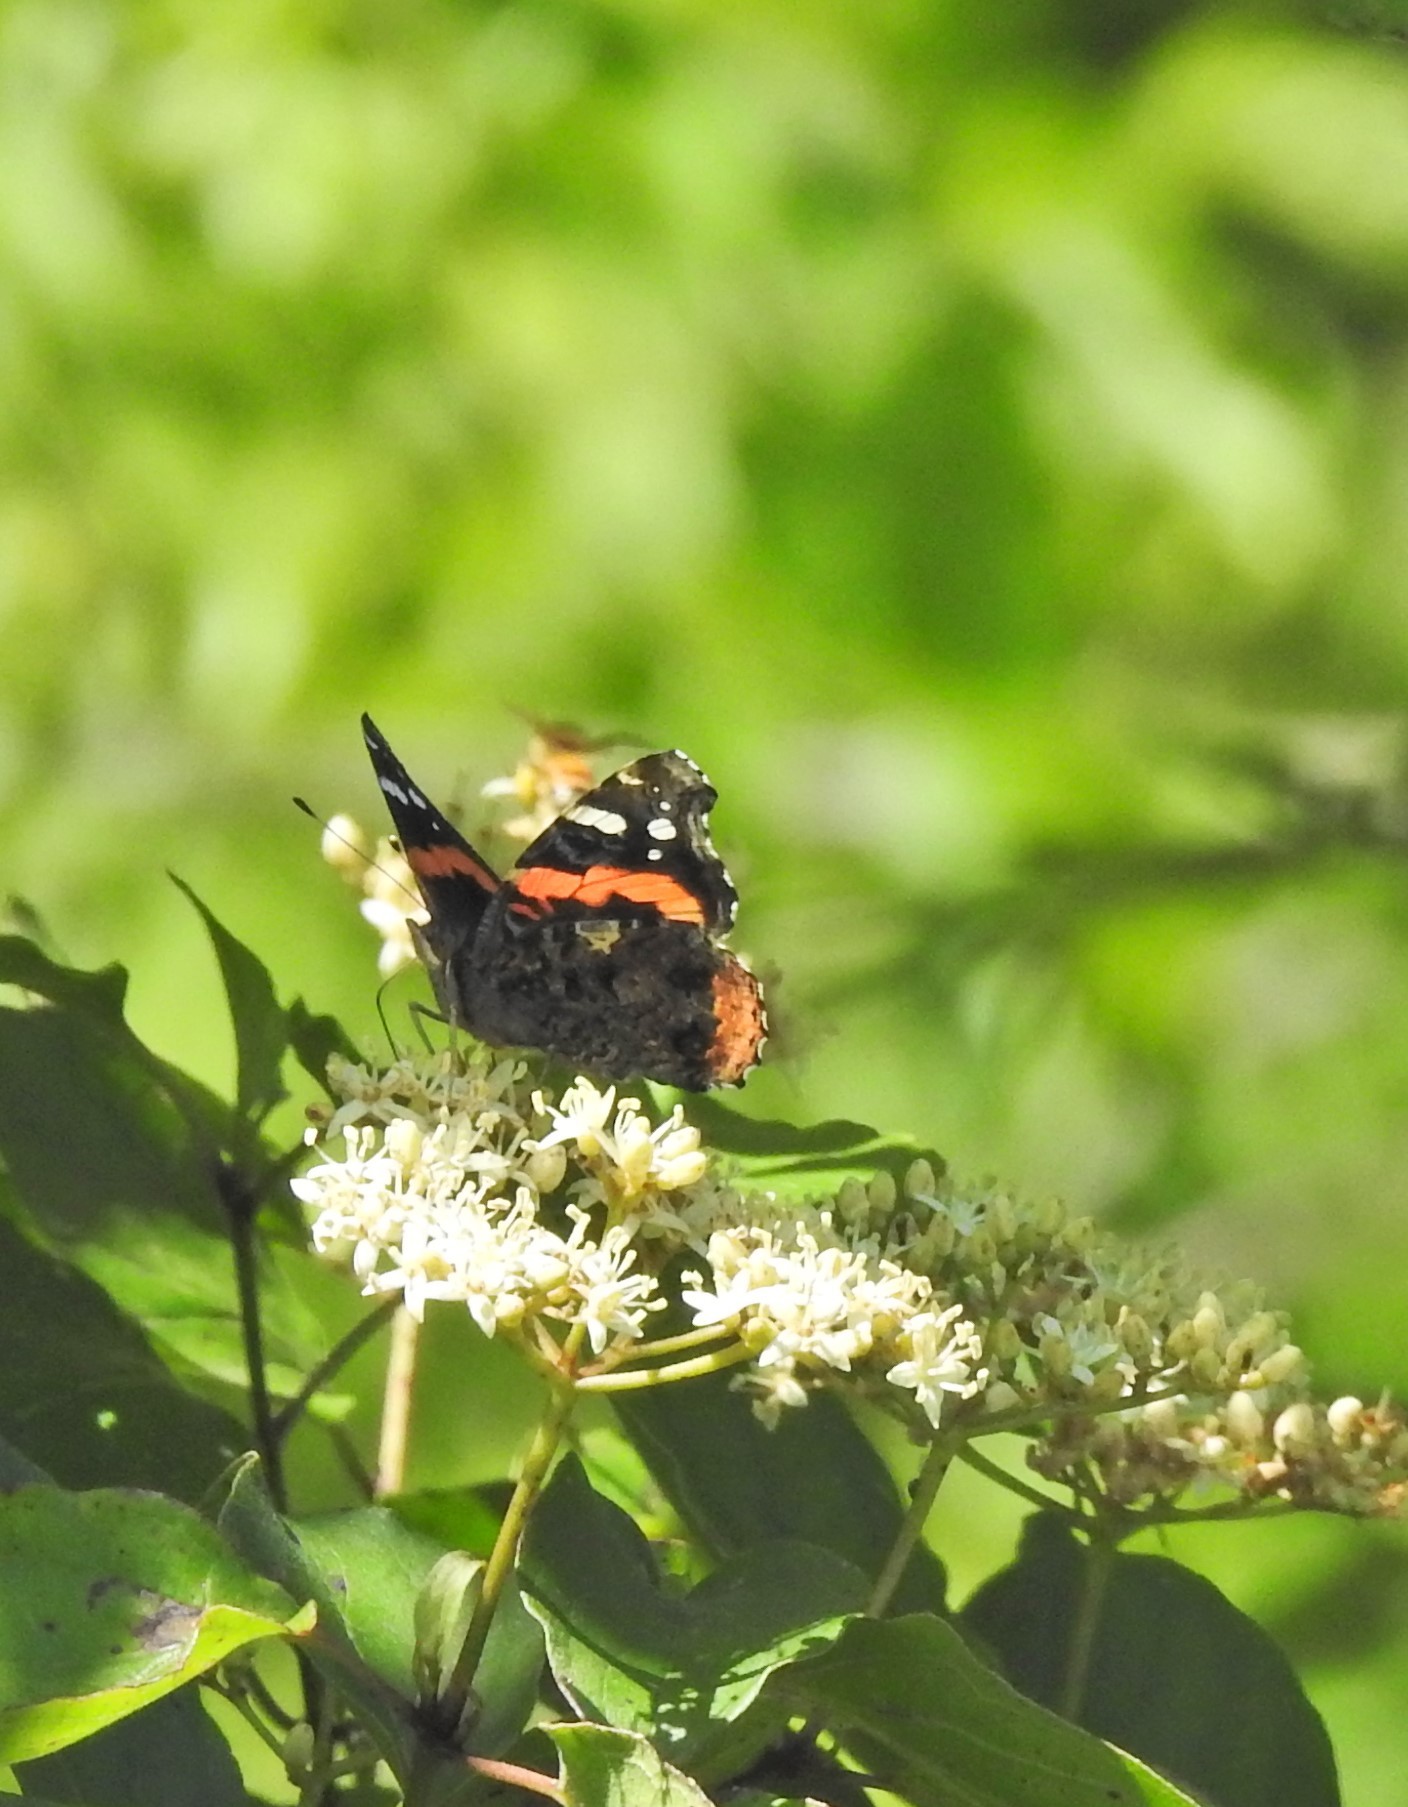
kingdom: Animalia
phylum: Arthropoda
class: Insecta
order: Lepidoptera
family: Nymphalidae
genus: Vanessa
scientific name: Vanessa atalanta
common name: Red admiral
